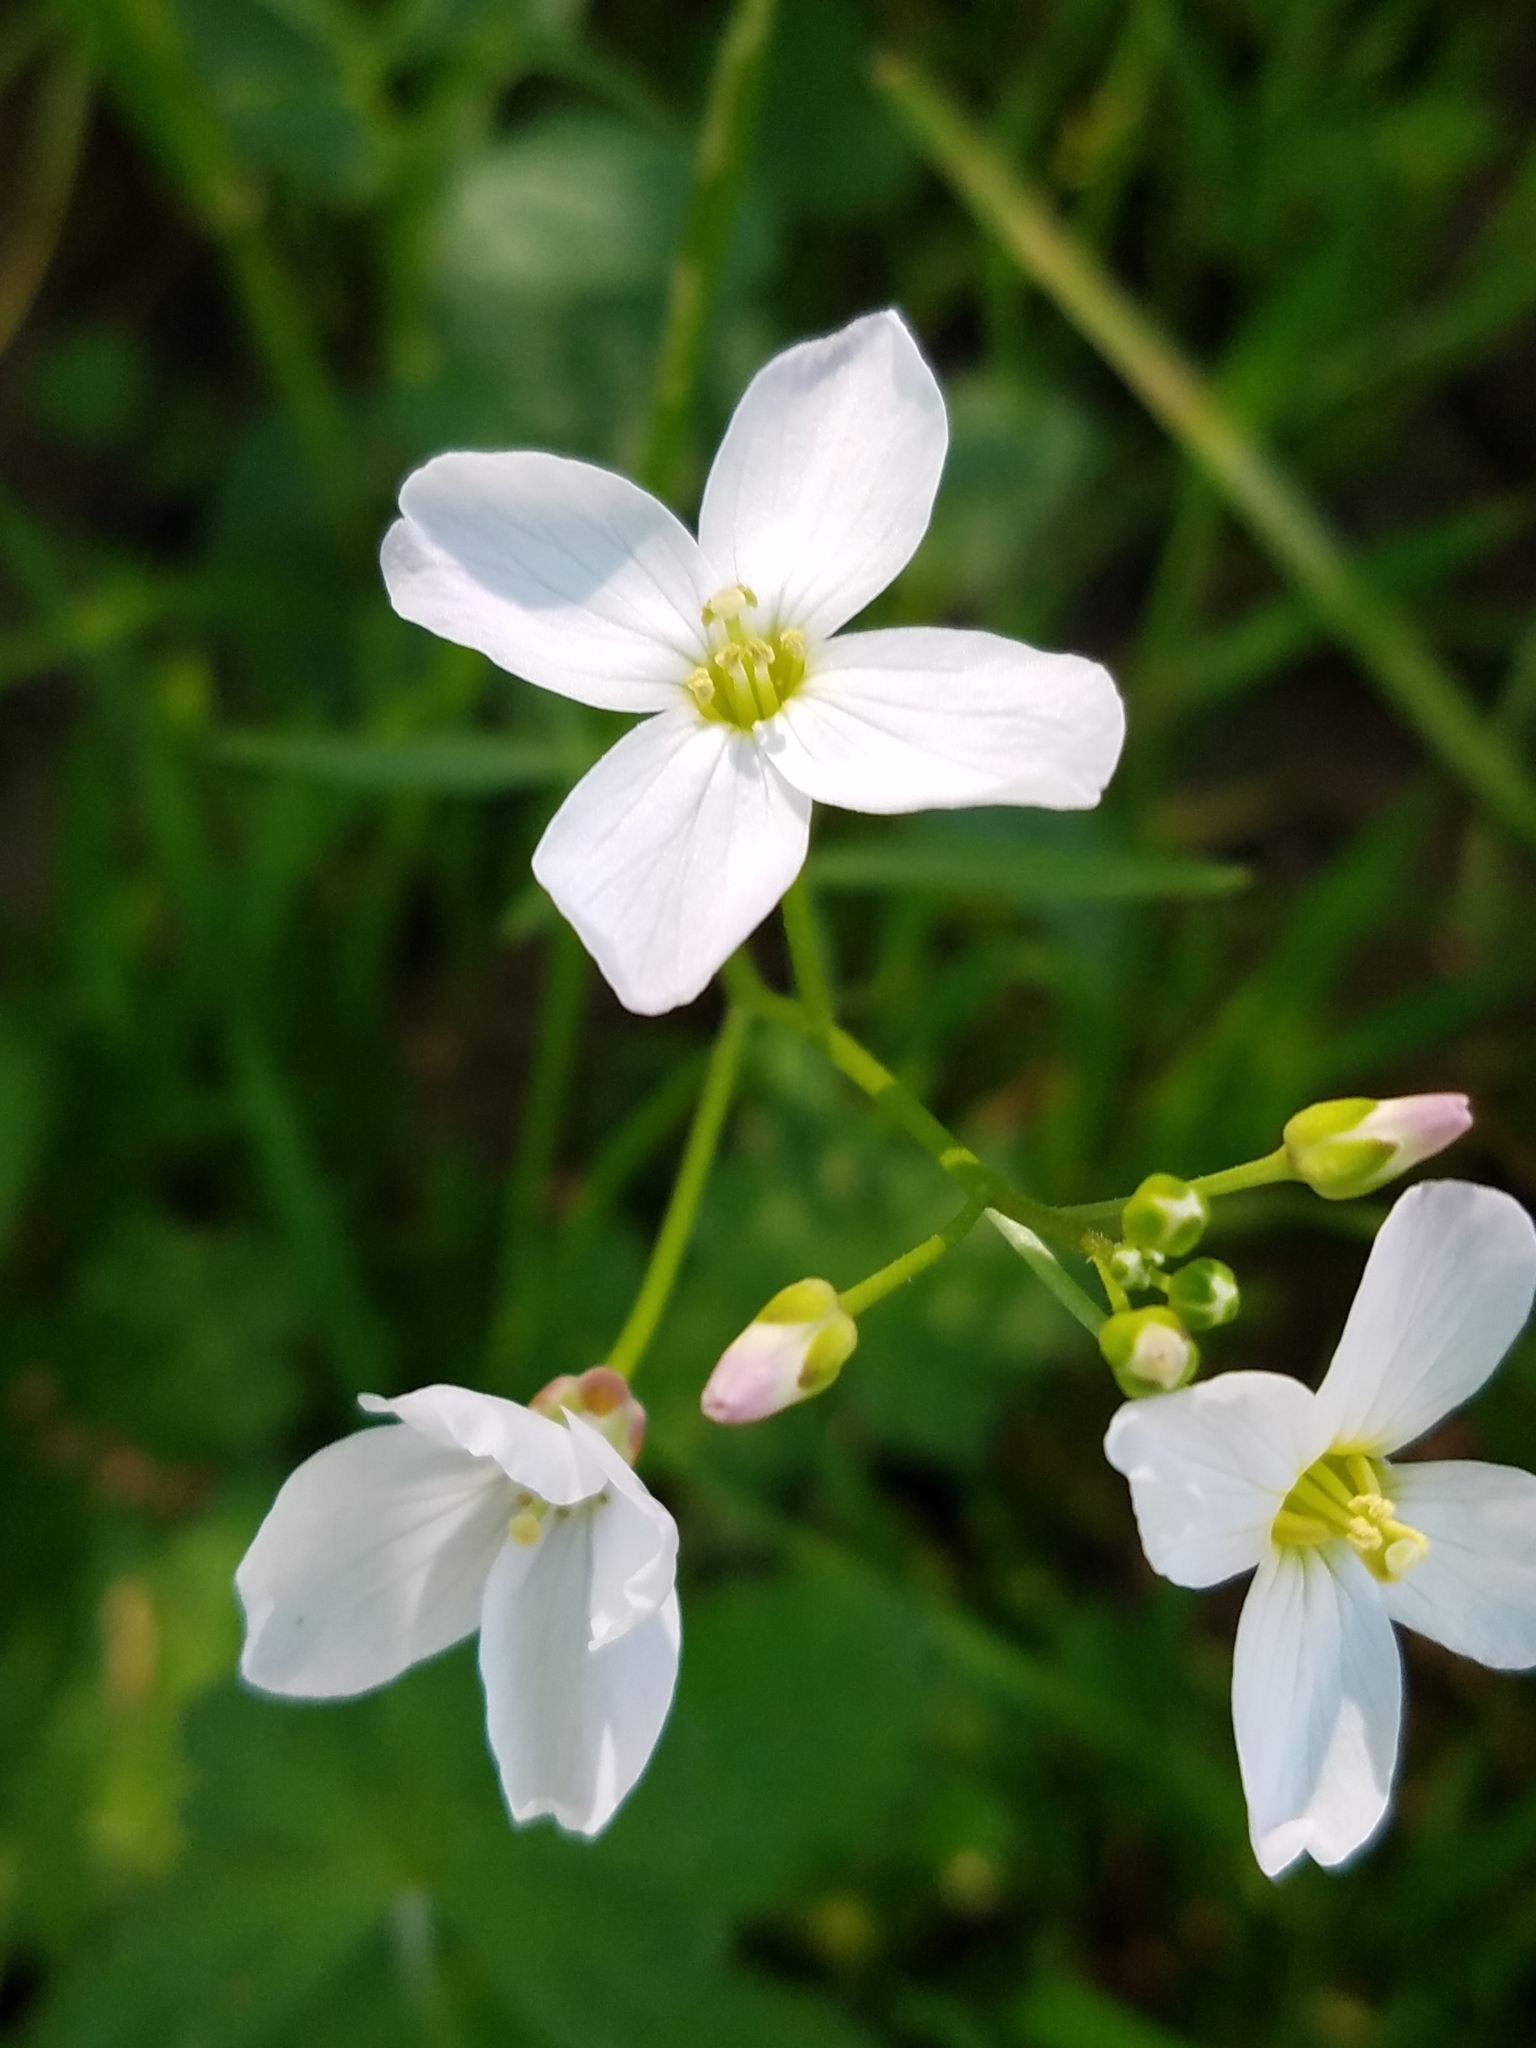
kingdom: Plantae
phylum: Tracheophyta
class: Magnoliopsida
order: Brassicales
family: Brassicaceae
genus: Cardamine
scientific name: Cardamine californica
